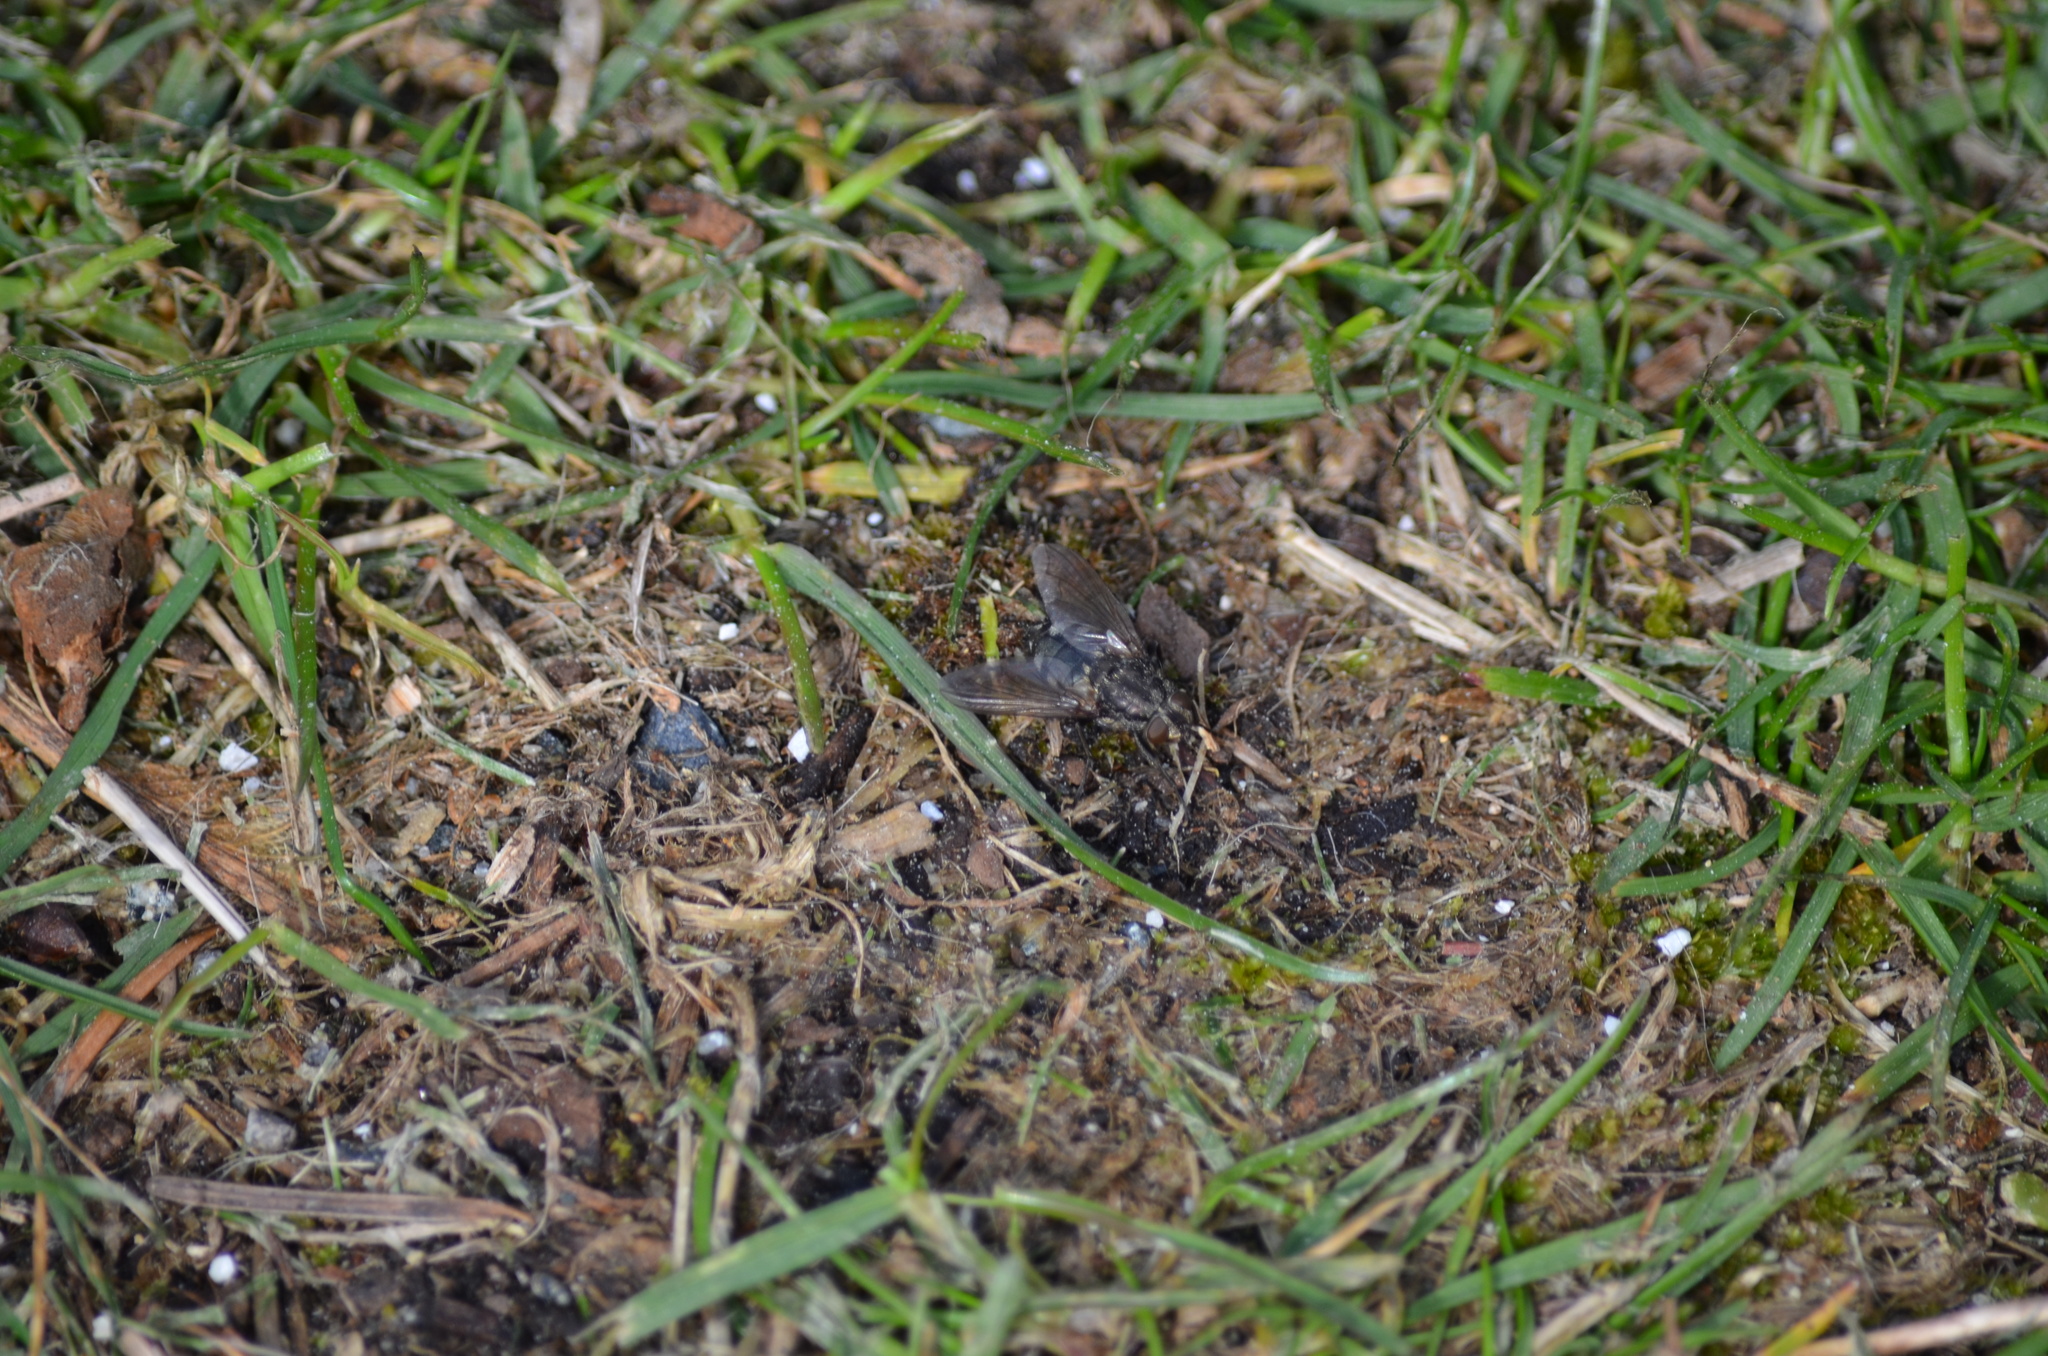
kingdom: Animalia
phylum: Arthropoda
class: Insecta
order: Diptera
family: Polleniidae
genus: Pollenia
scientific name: Pollenia vagabunda
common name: Vagabund cluster fly
